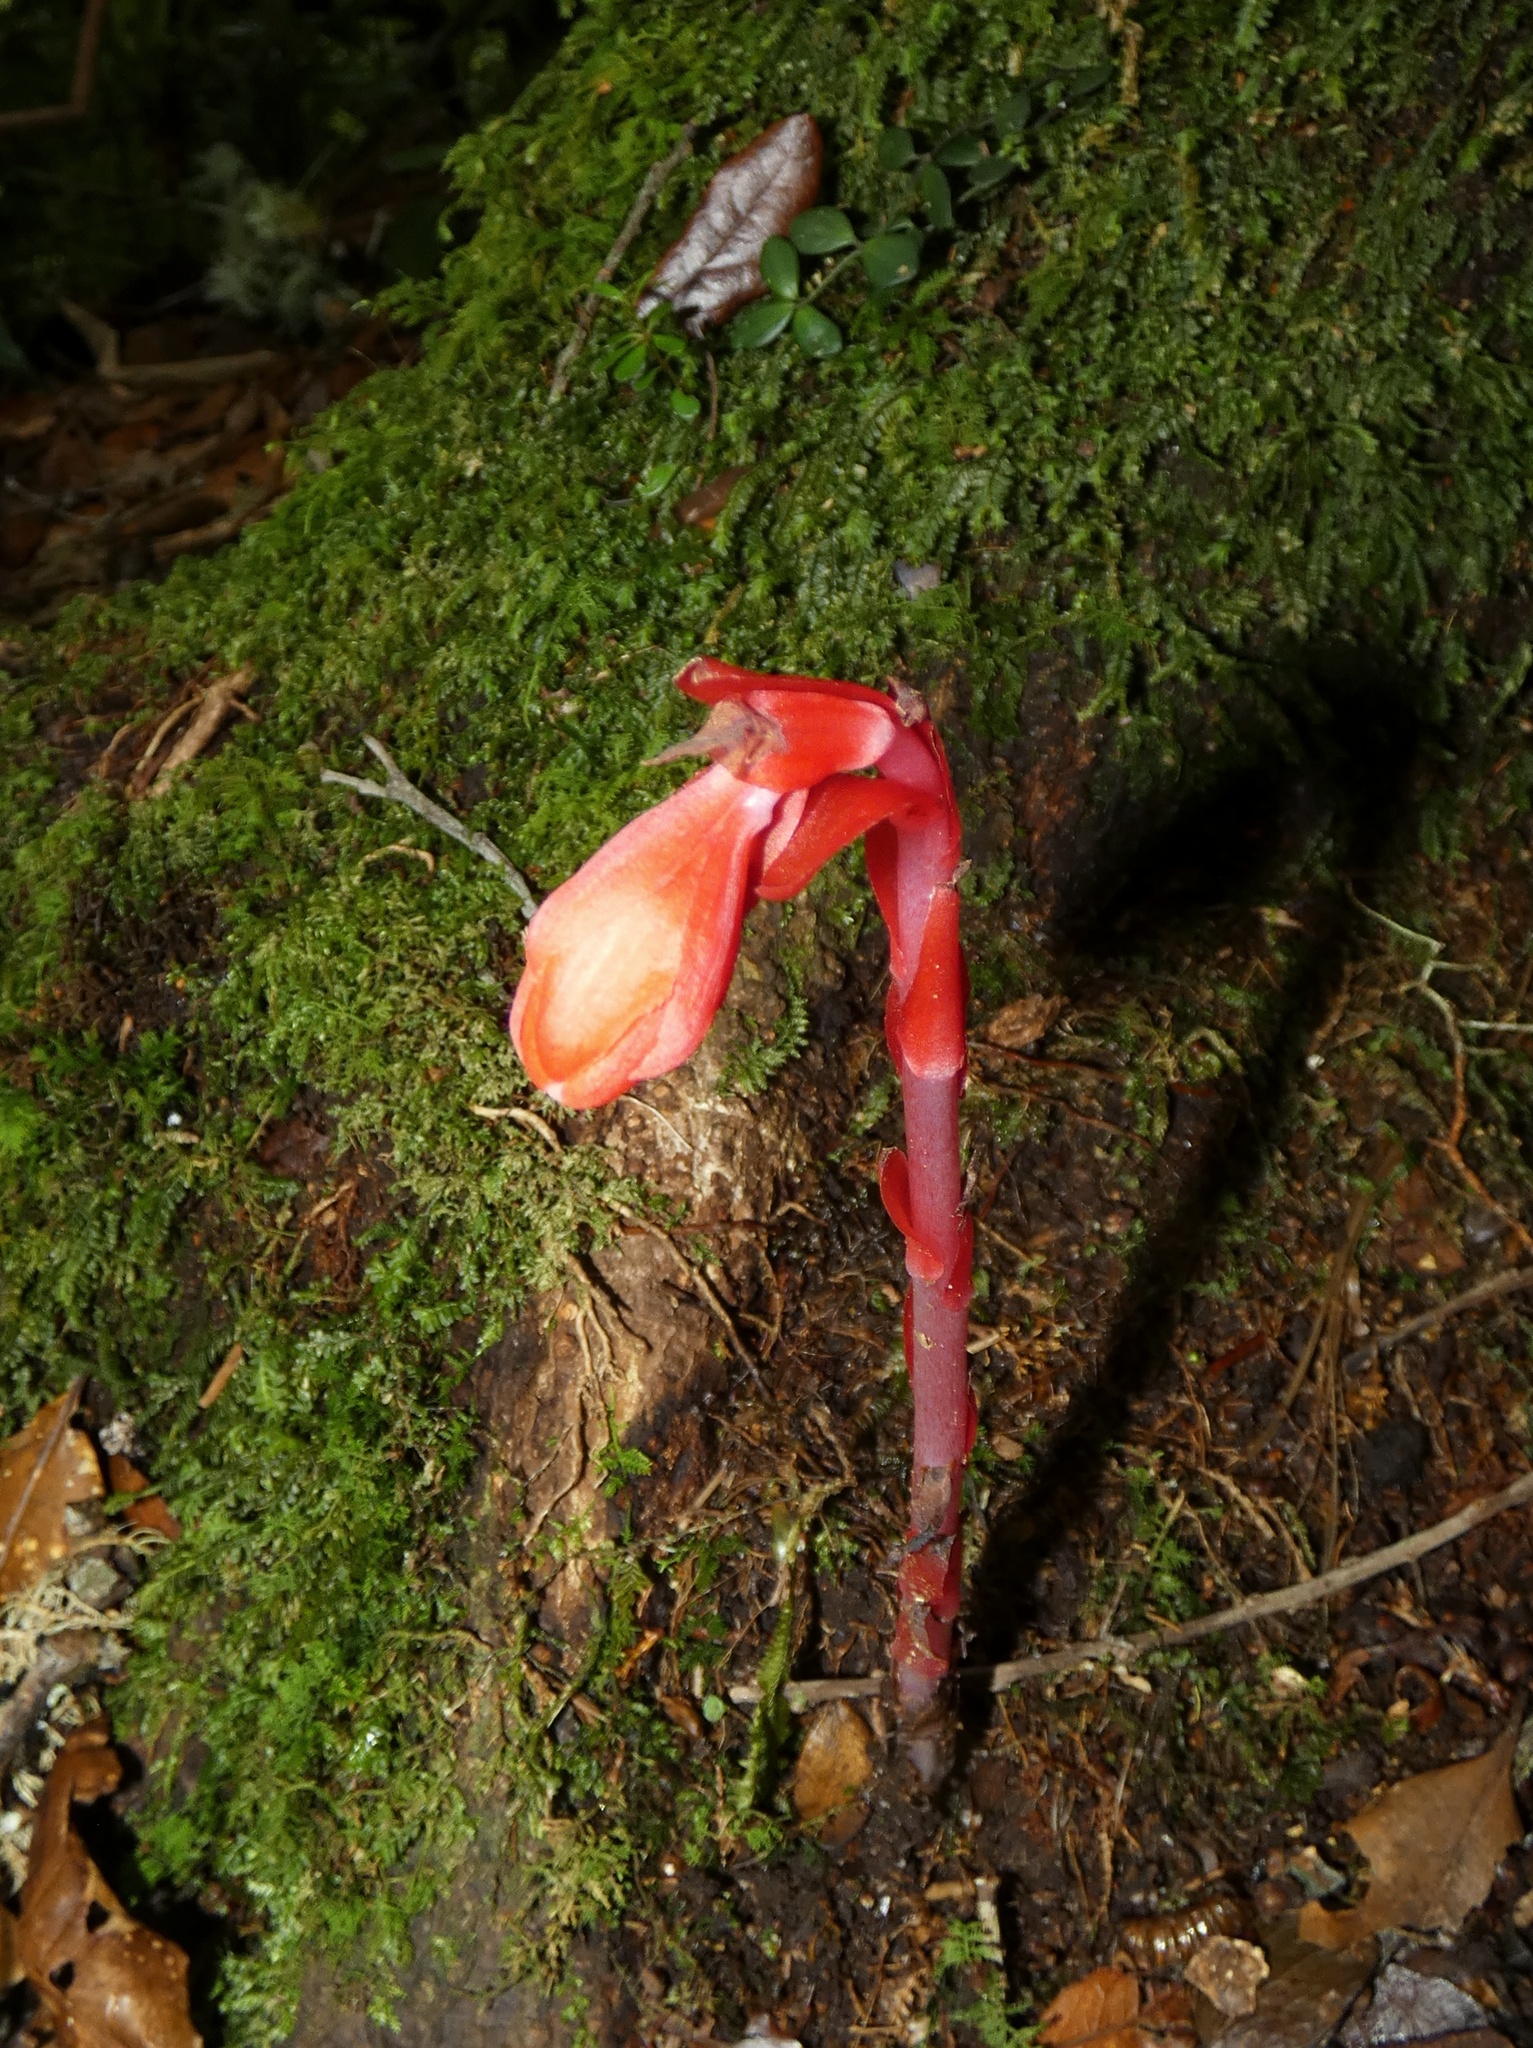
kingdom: Plantae
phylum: Tracheophyta
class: Magnoliopsida
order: Ericales
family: Ericaceae
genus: Monotropa
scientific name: Monotropa coccinea
